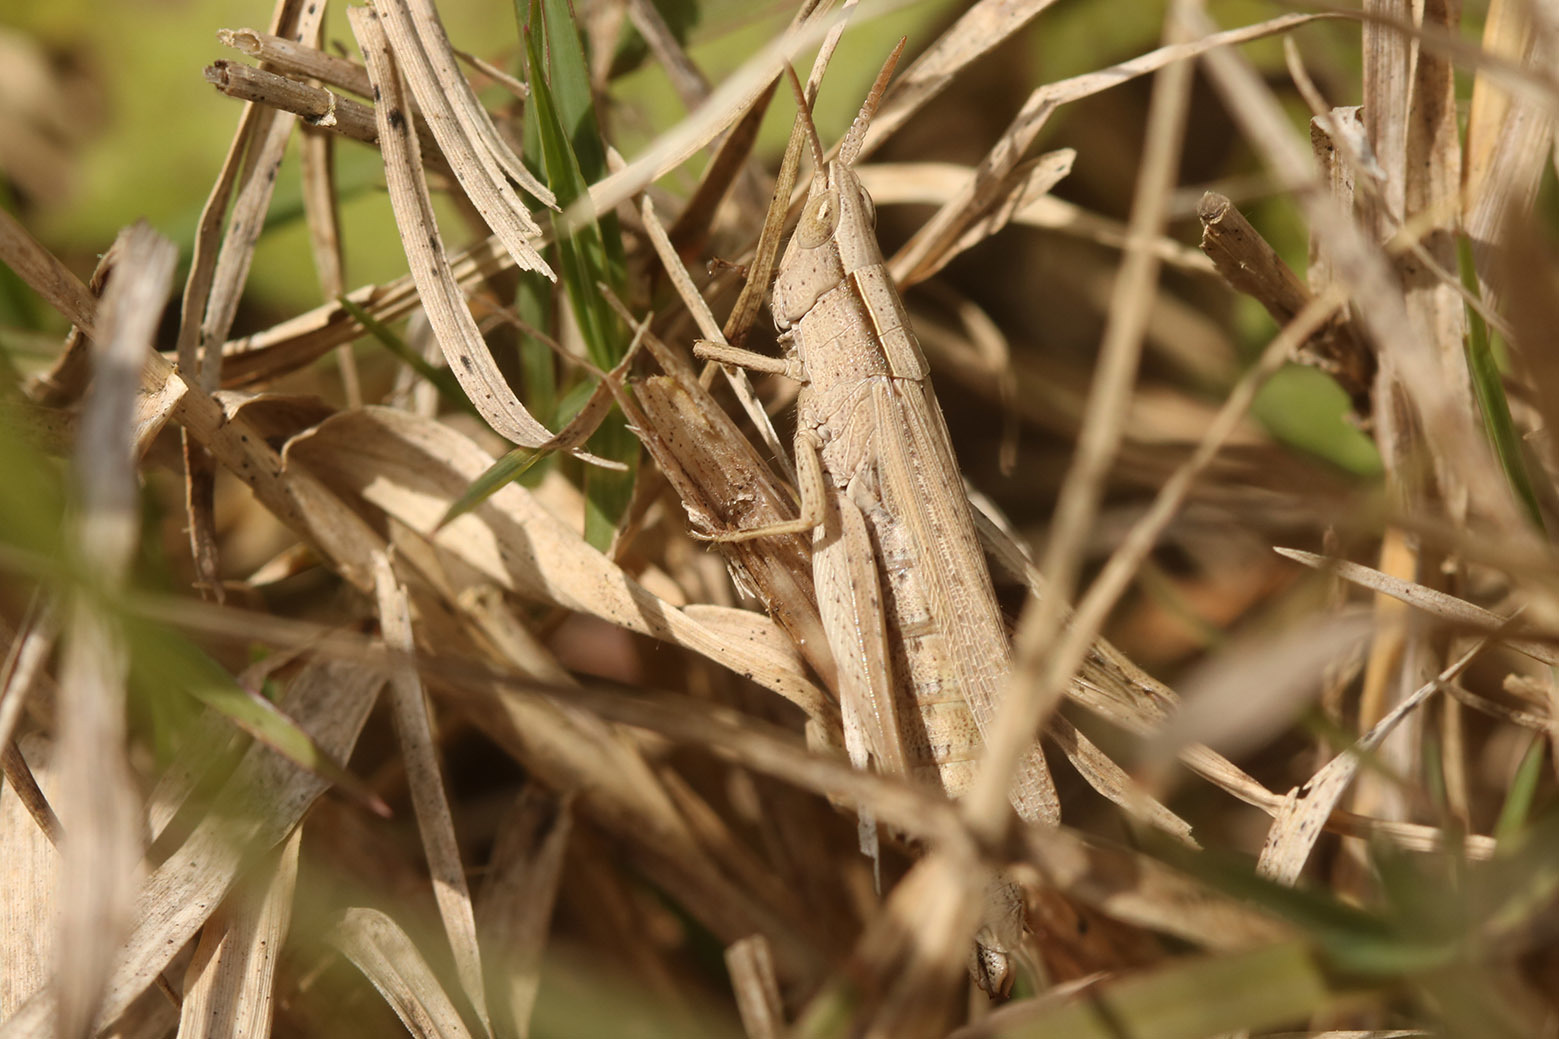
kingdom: Animalia
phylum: Arthropoda
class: Insecta
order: Orthoptera
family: Acrididae
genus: Laplatacris
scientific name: Laplatacris dispar
